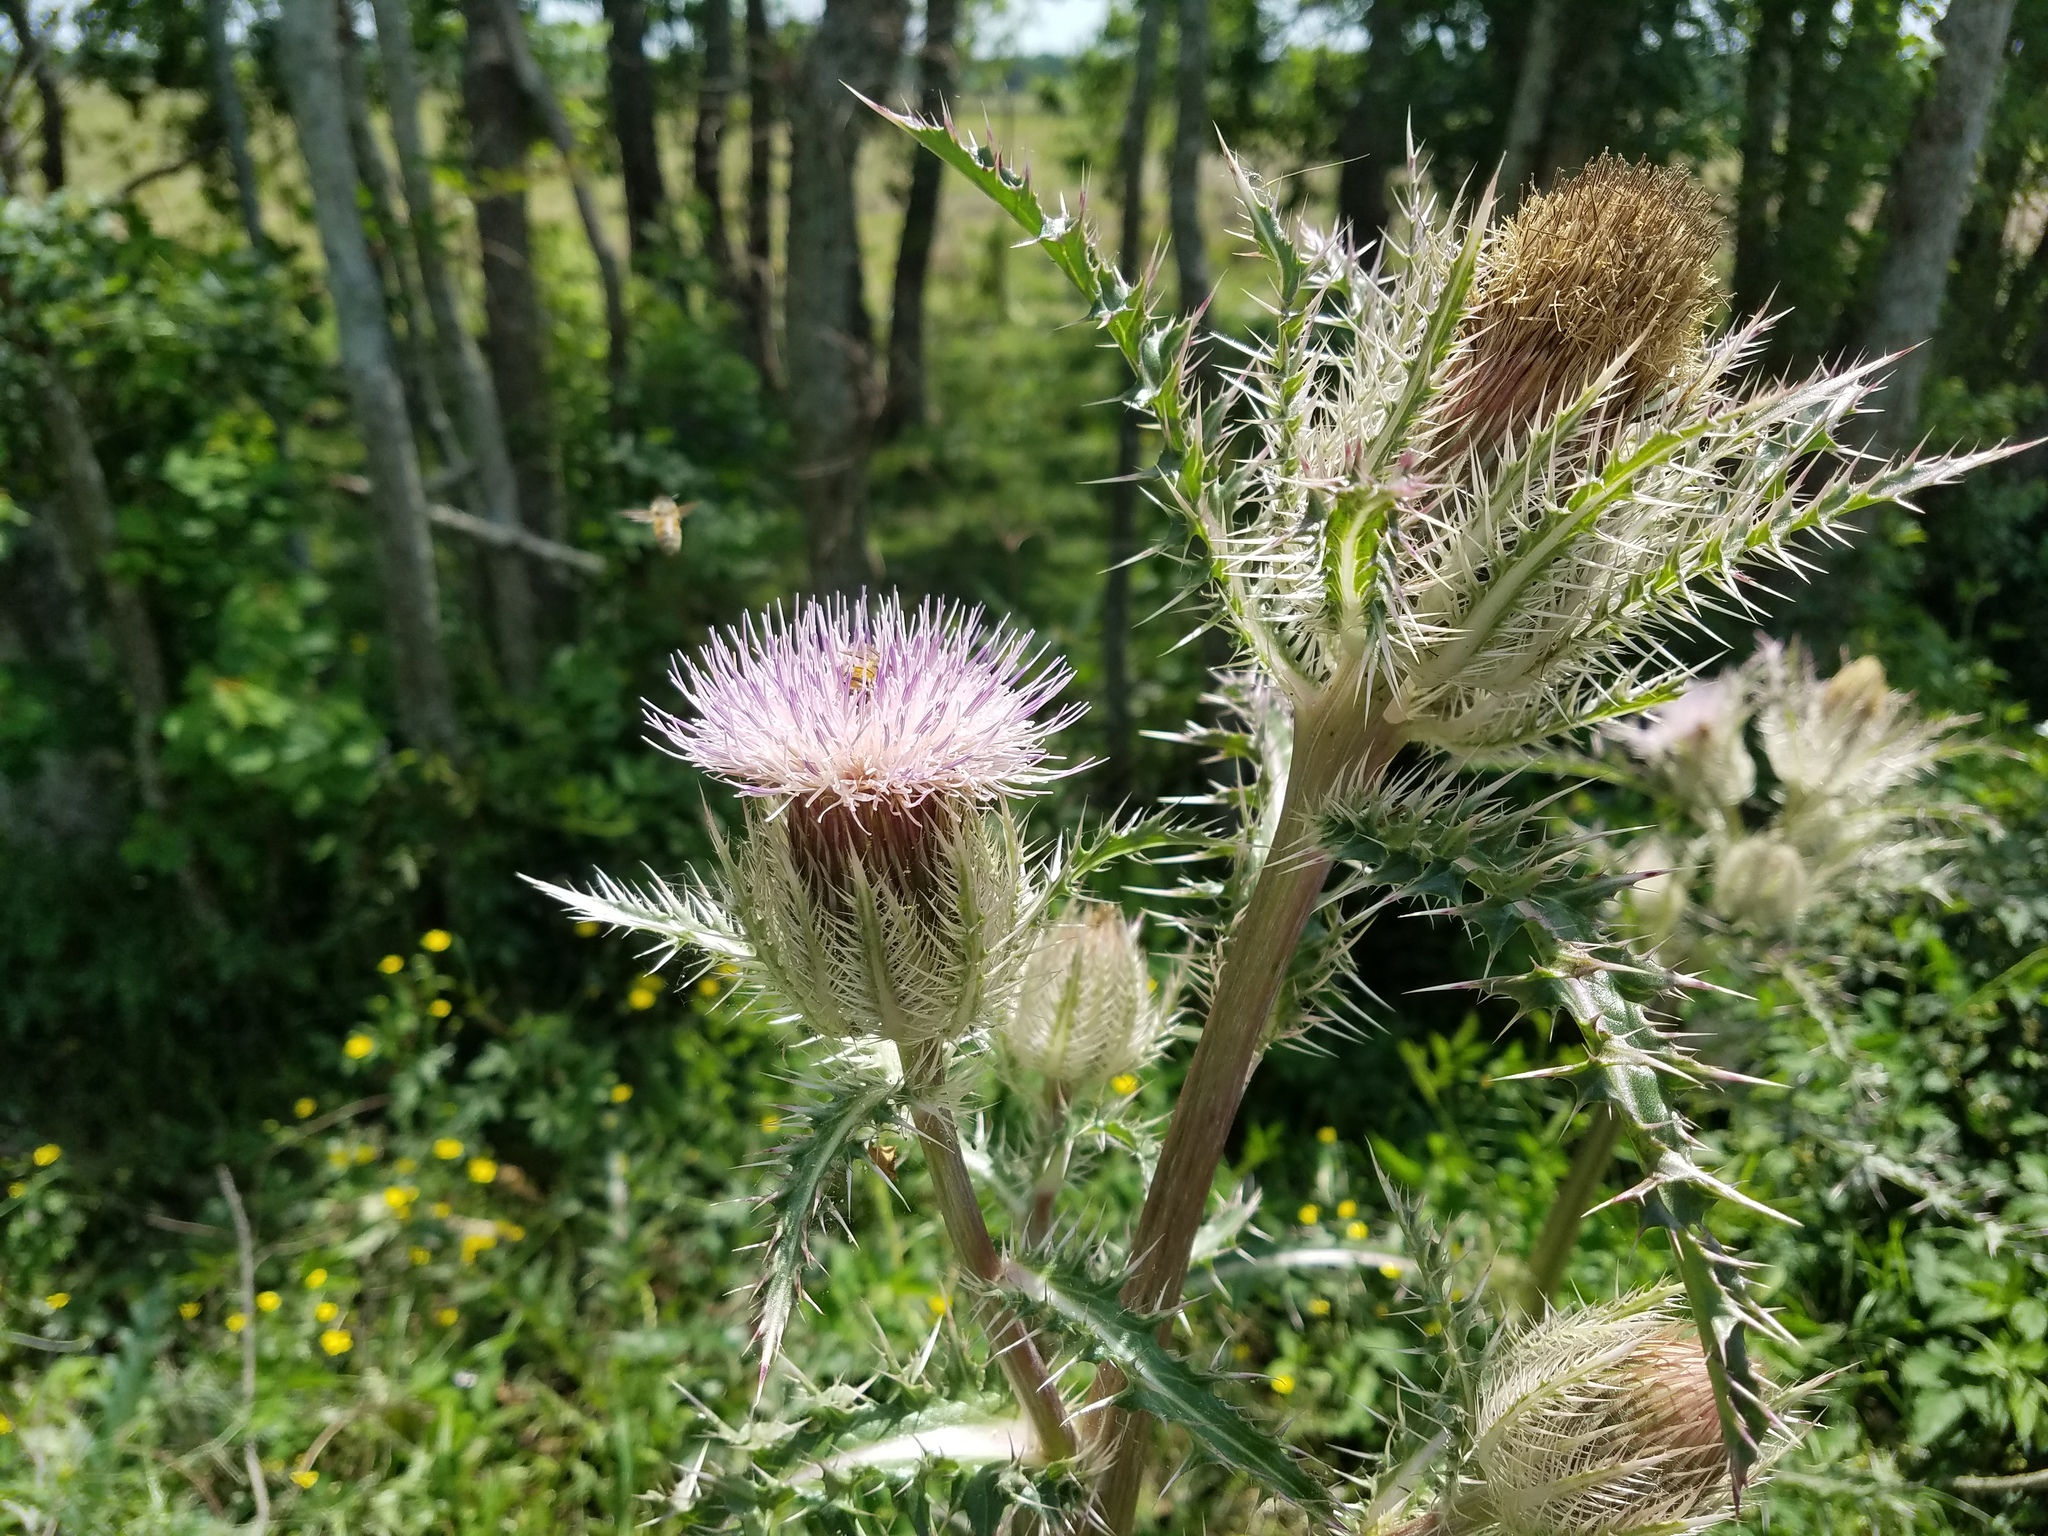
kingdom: Plantae
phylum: Tracheophyta
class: Magnoliopsida
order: Asterales
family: Asteraceae
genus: Cirsium
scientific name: Cirsium horridulum
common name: Bristly thistle
